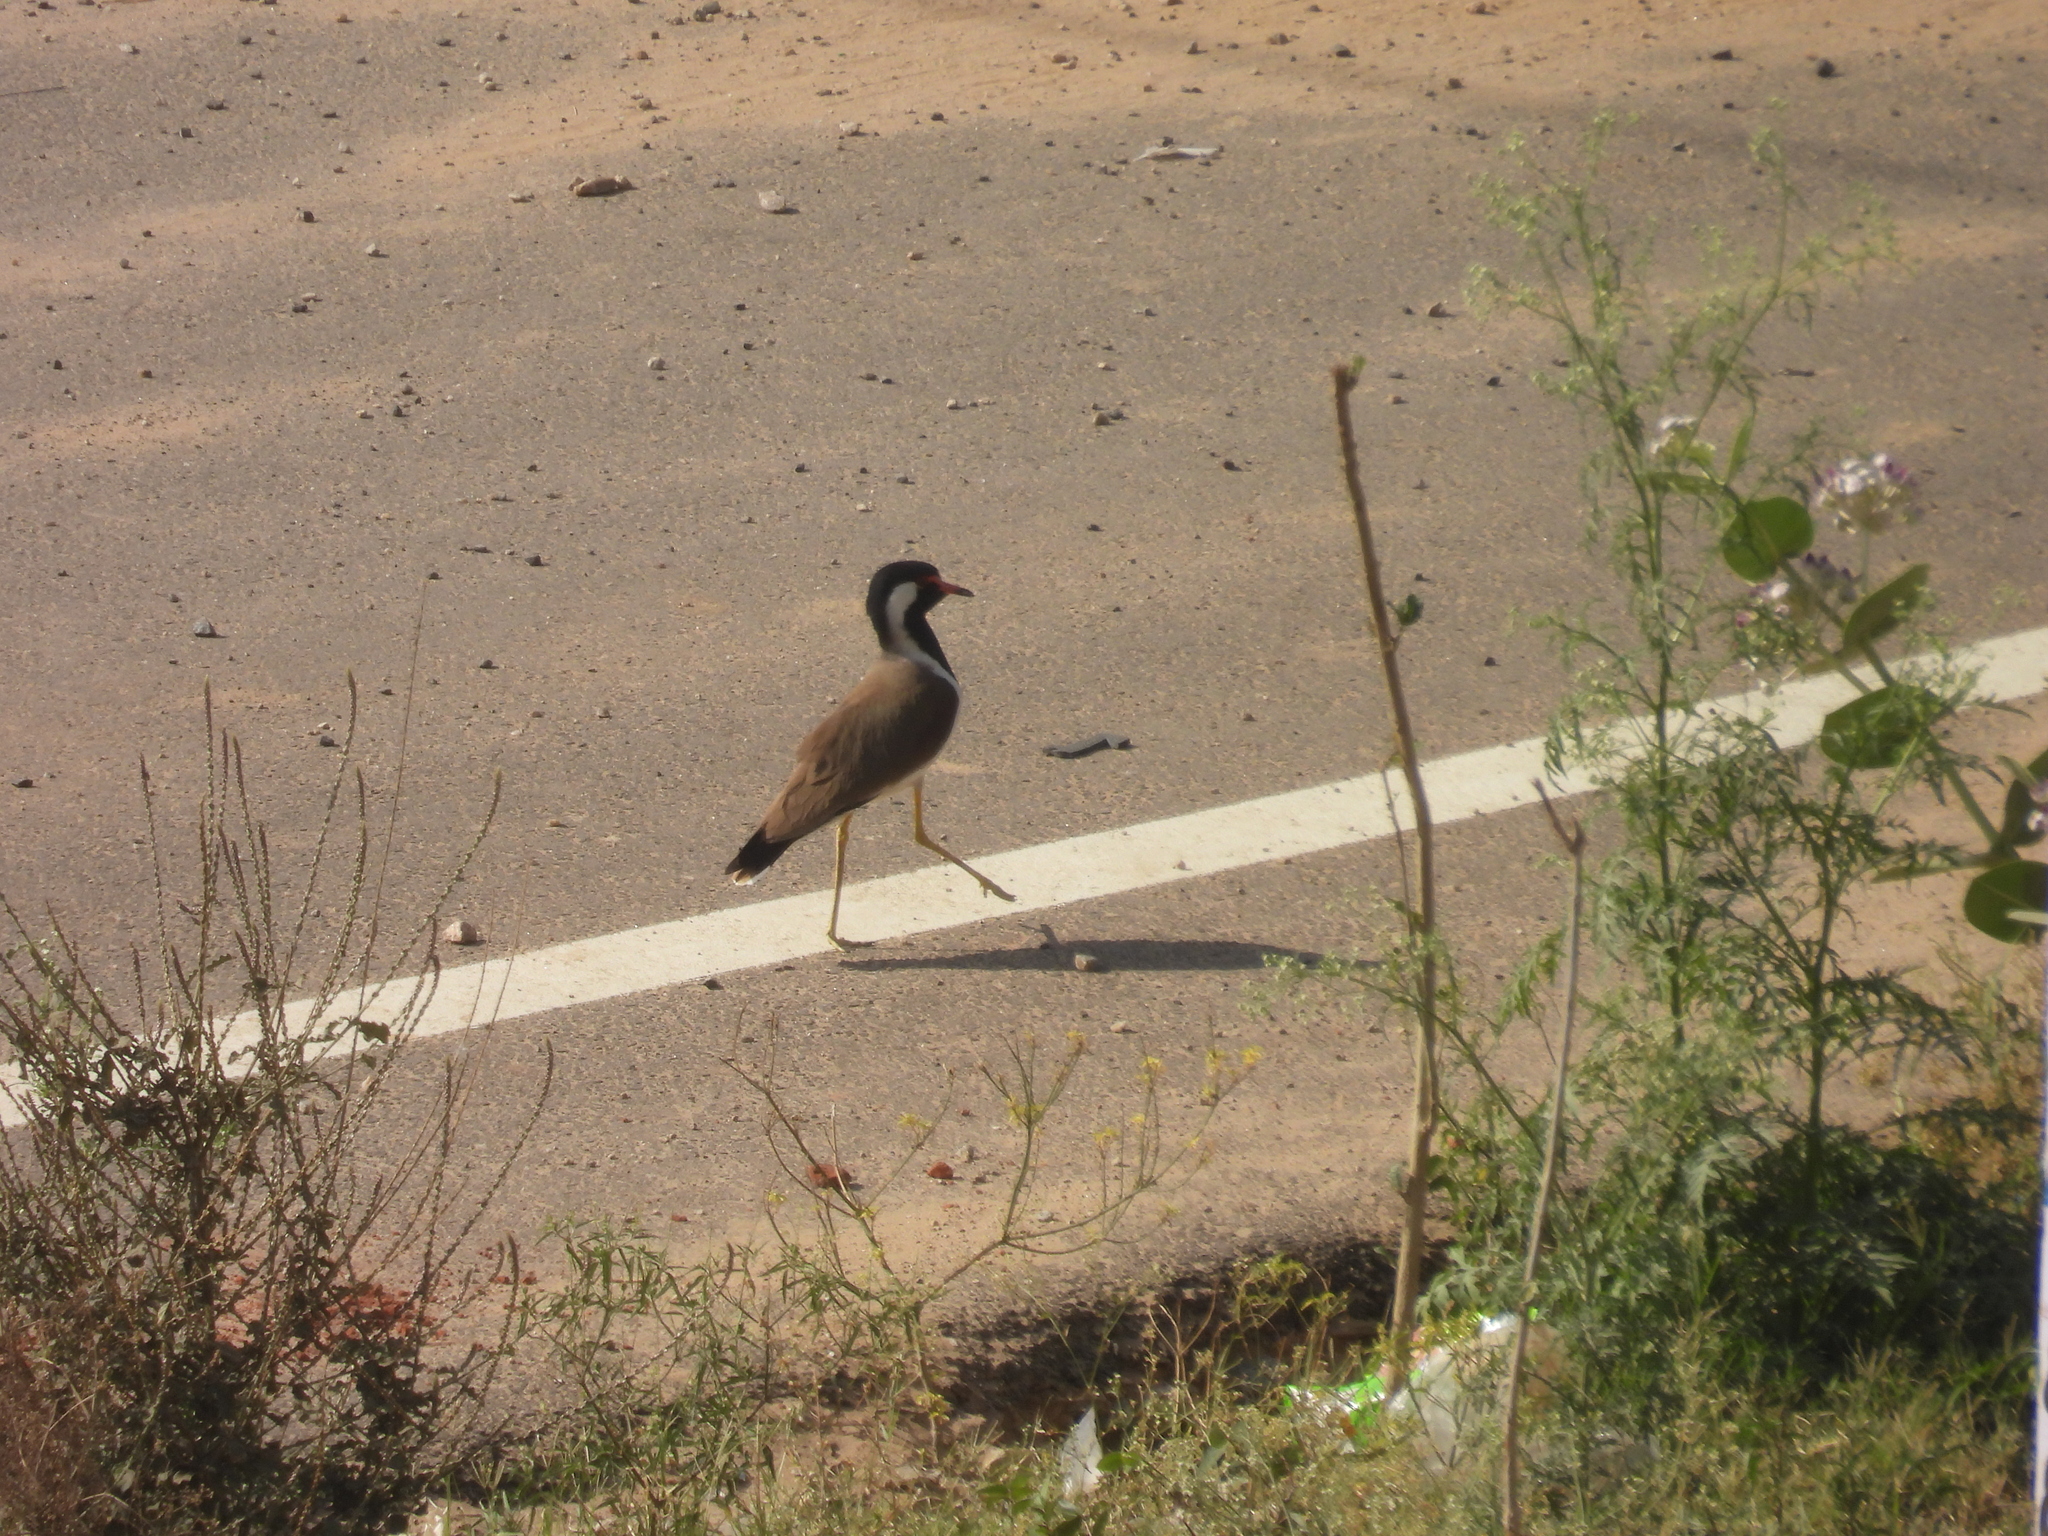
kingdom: Animalia
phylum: Chordata
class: Aves
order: Charadriiformes
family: Charadriidae
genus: Vanellus
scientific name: Vanellus indicus
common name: Red-wattled lapwing
